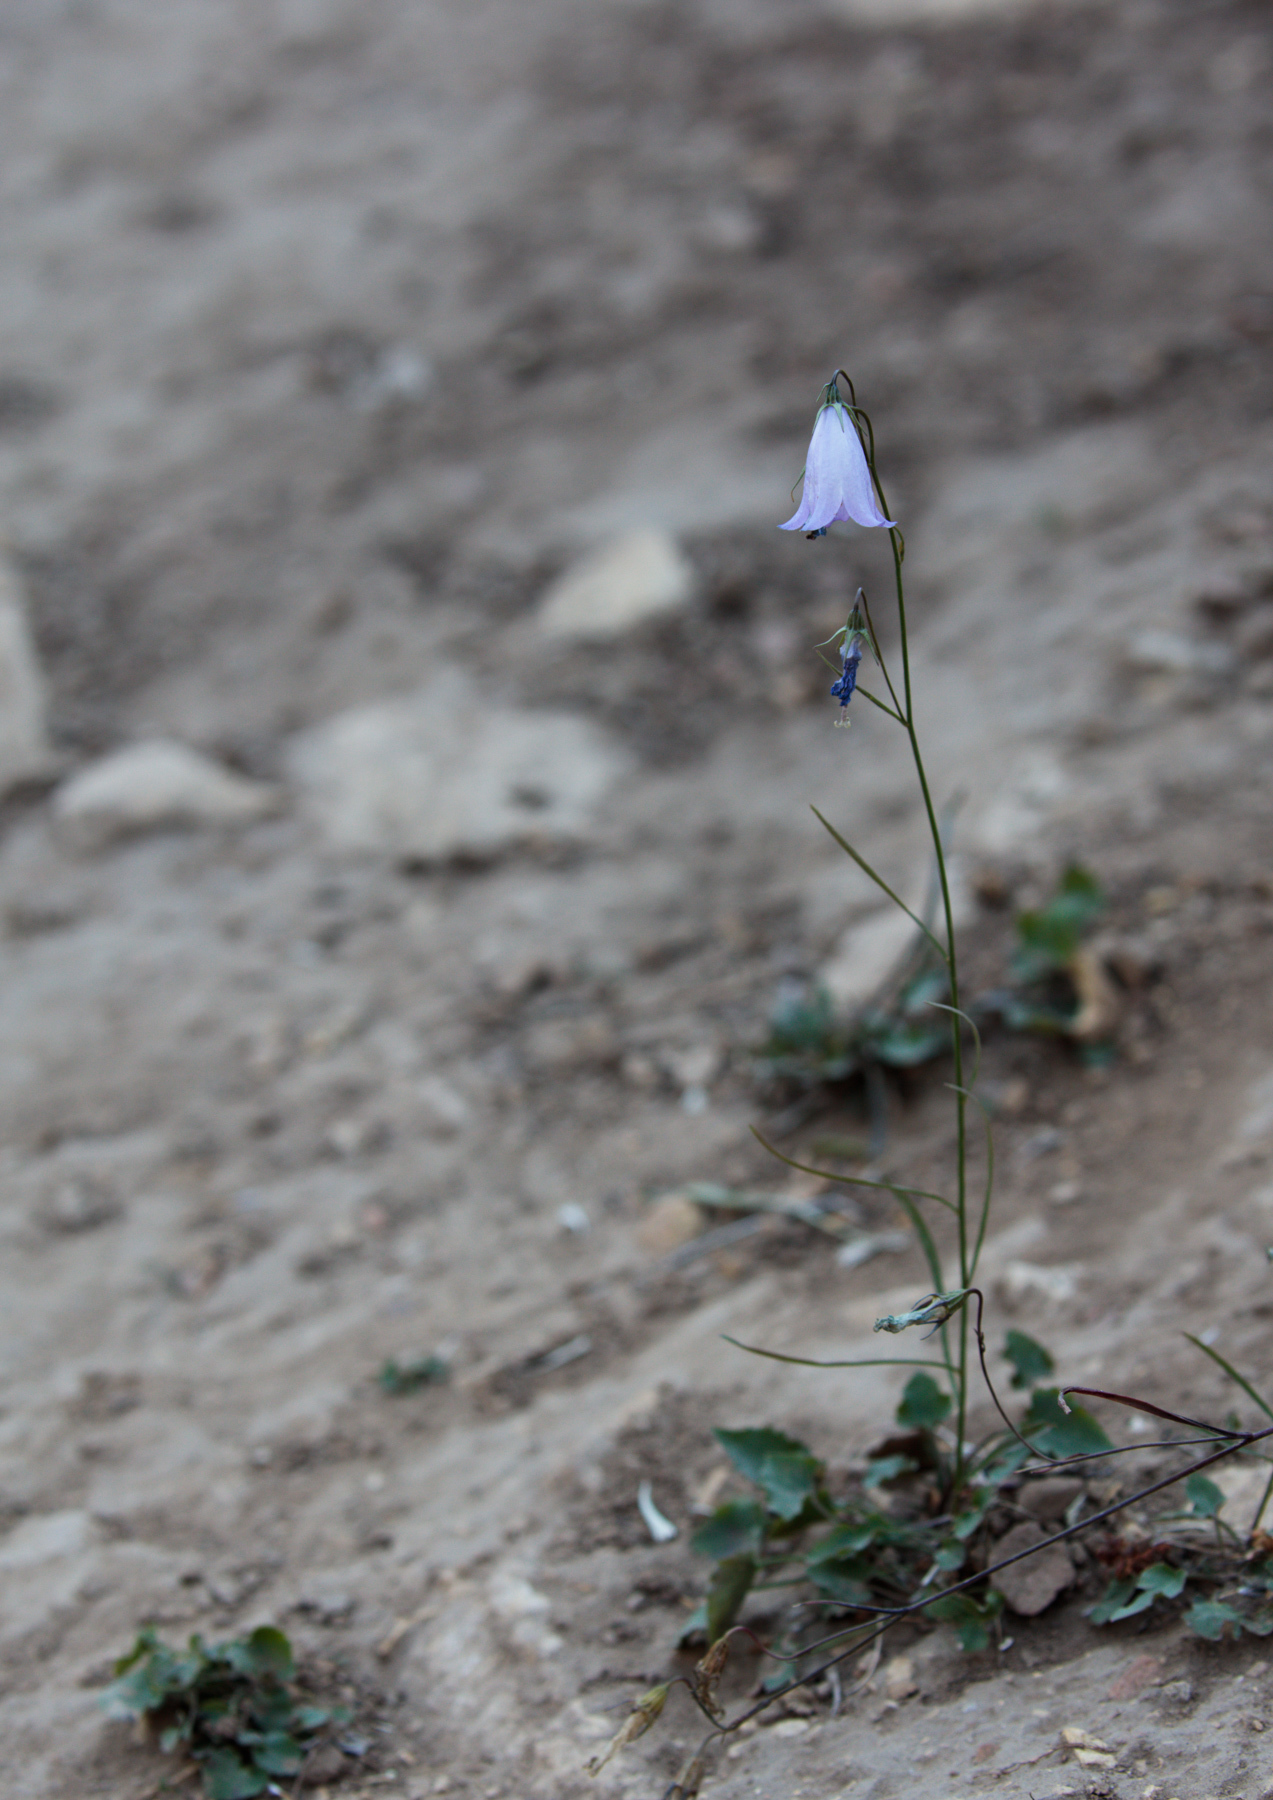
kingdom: Plantae
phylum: Tracheophyta
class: Magnoliopsida
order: Asterales
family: Campanulaceae
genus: Campanula
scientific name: Campanula
